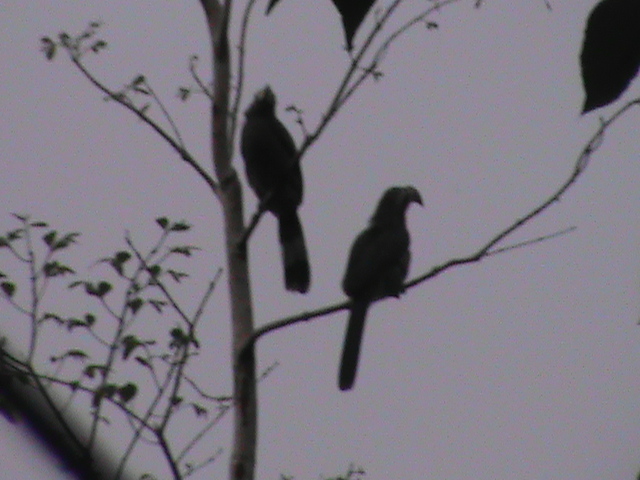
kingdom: Animalia
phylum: Chordata
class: Aves
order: Bucerotiformes
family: Bucerotidae
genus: Ocyceros
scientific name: Ocyceros griseus
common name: Malabar grey hornbill
